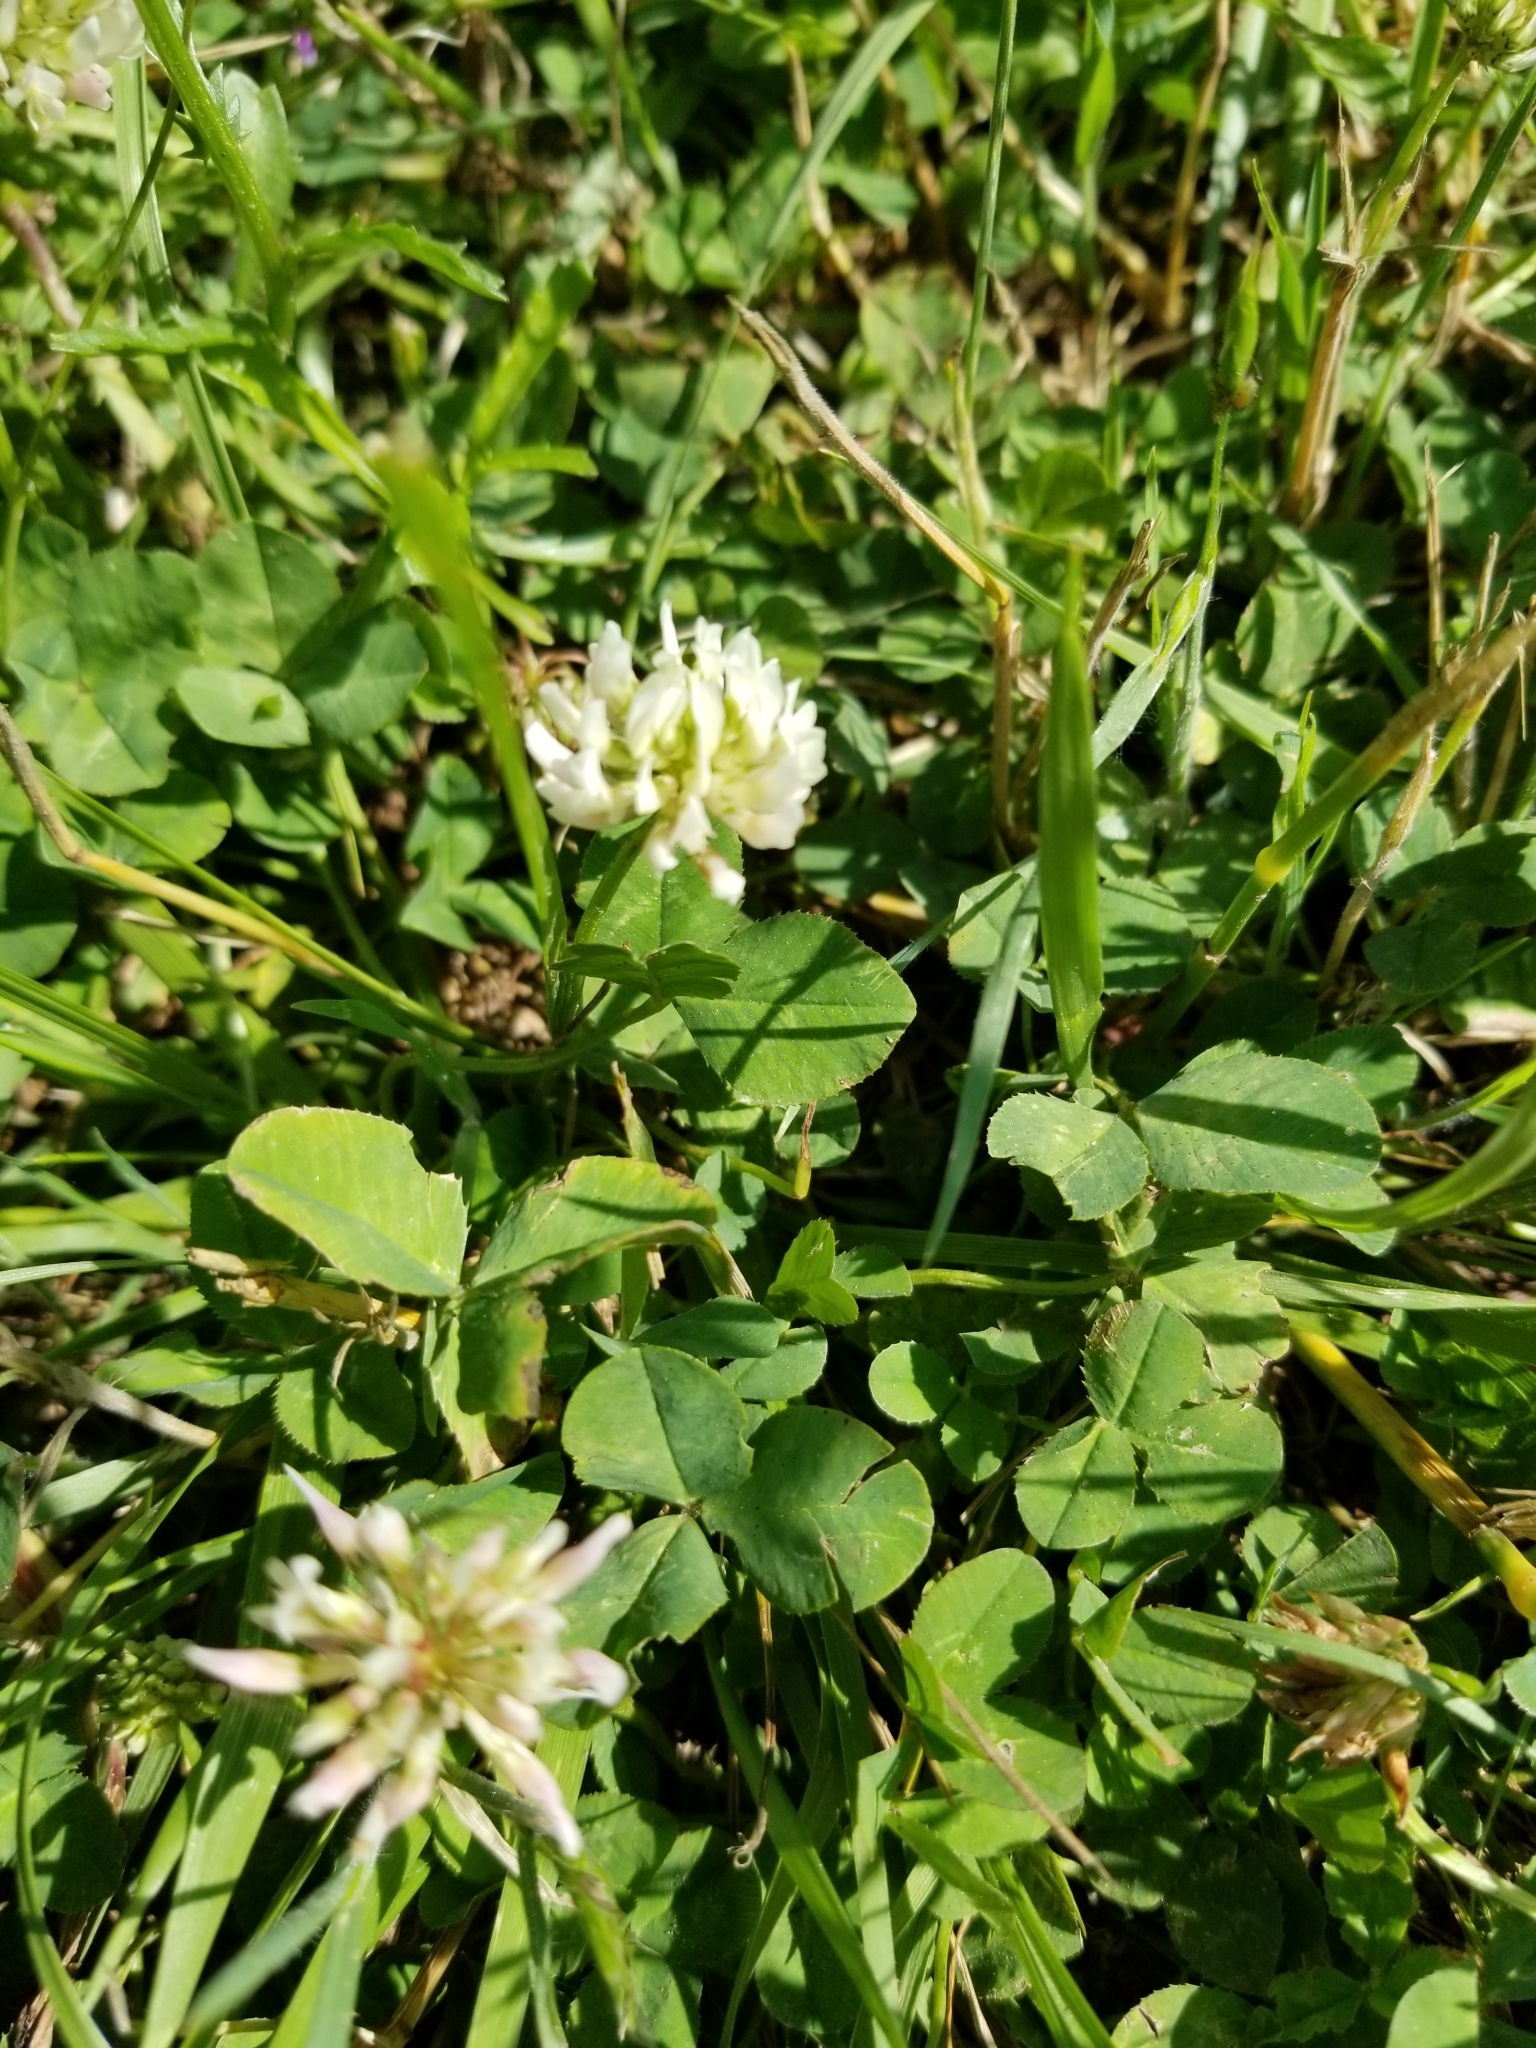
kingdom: Plantae
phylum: Tracheophyta
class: Magnoliopsida
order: Fabales
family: Fabaceae
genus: Trifolium
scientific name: Trifolium repens
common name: White clover
